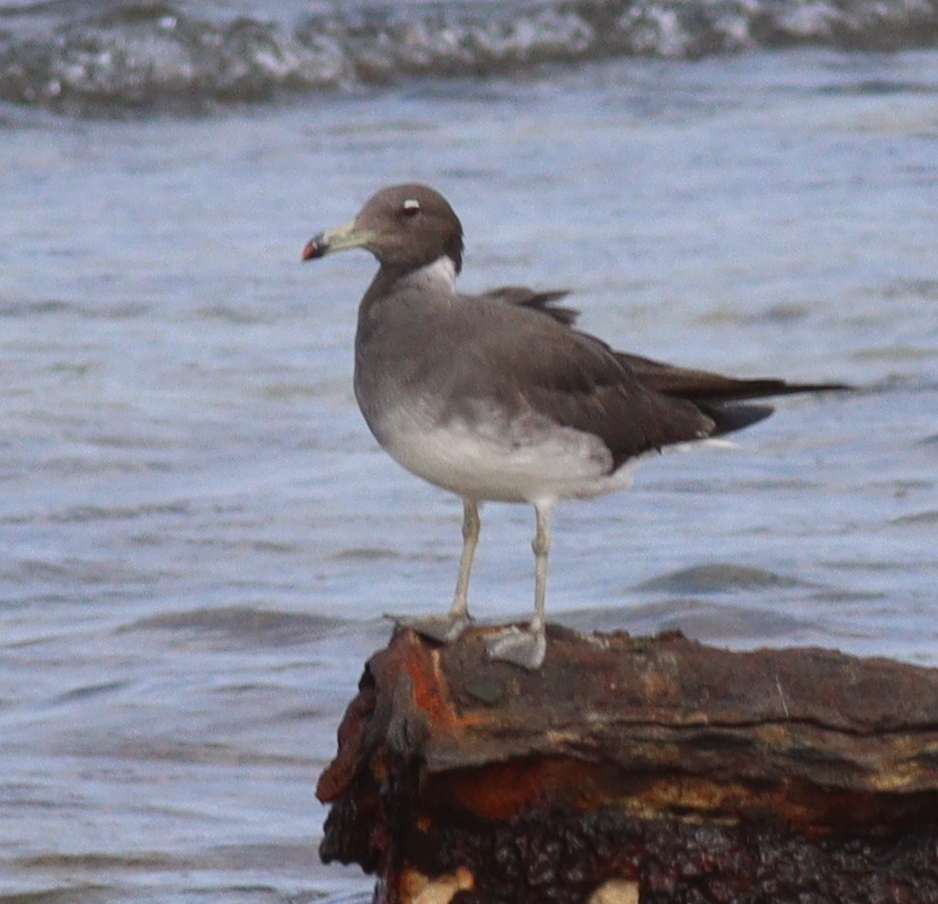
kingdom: Animalia
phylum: Chordata
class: Aves
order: Charadriiformes
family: Laridae
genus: Ichthyaetus
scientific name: Ichthyaetus hemprichii
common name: Sooty gull
